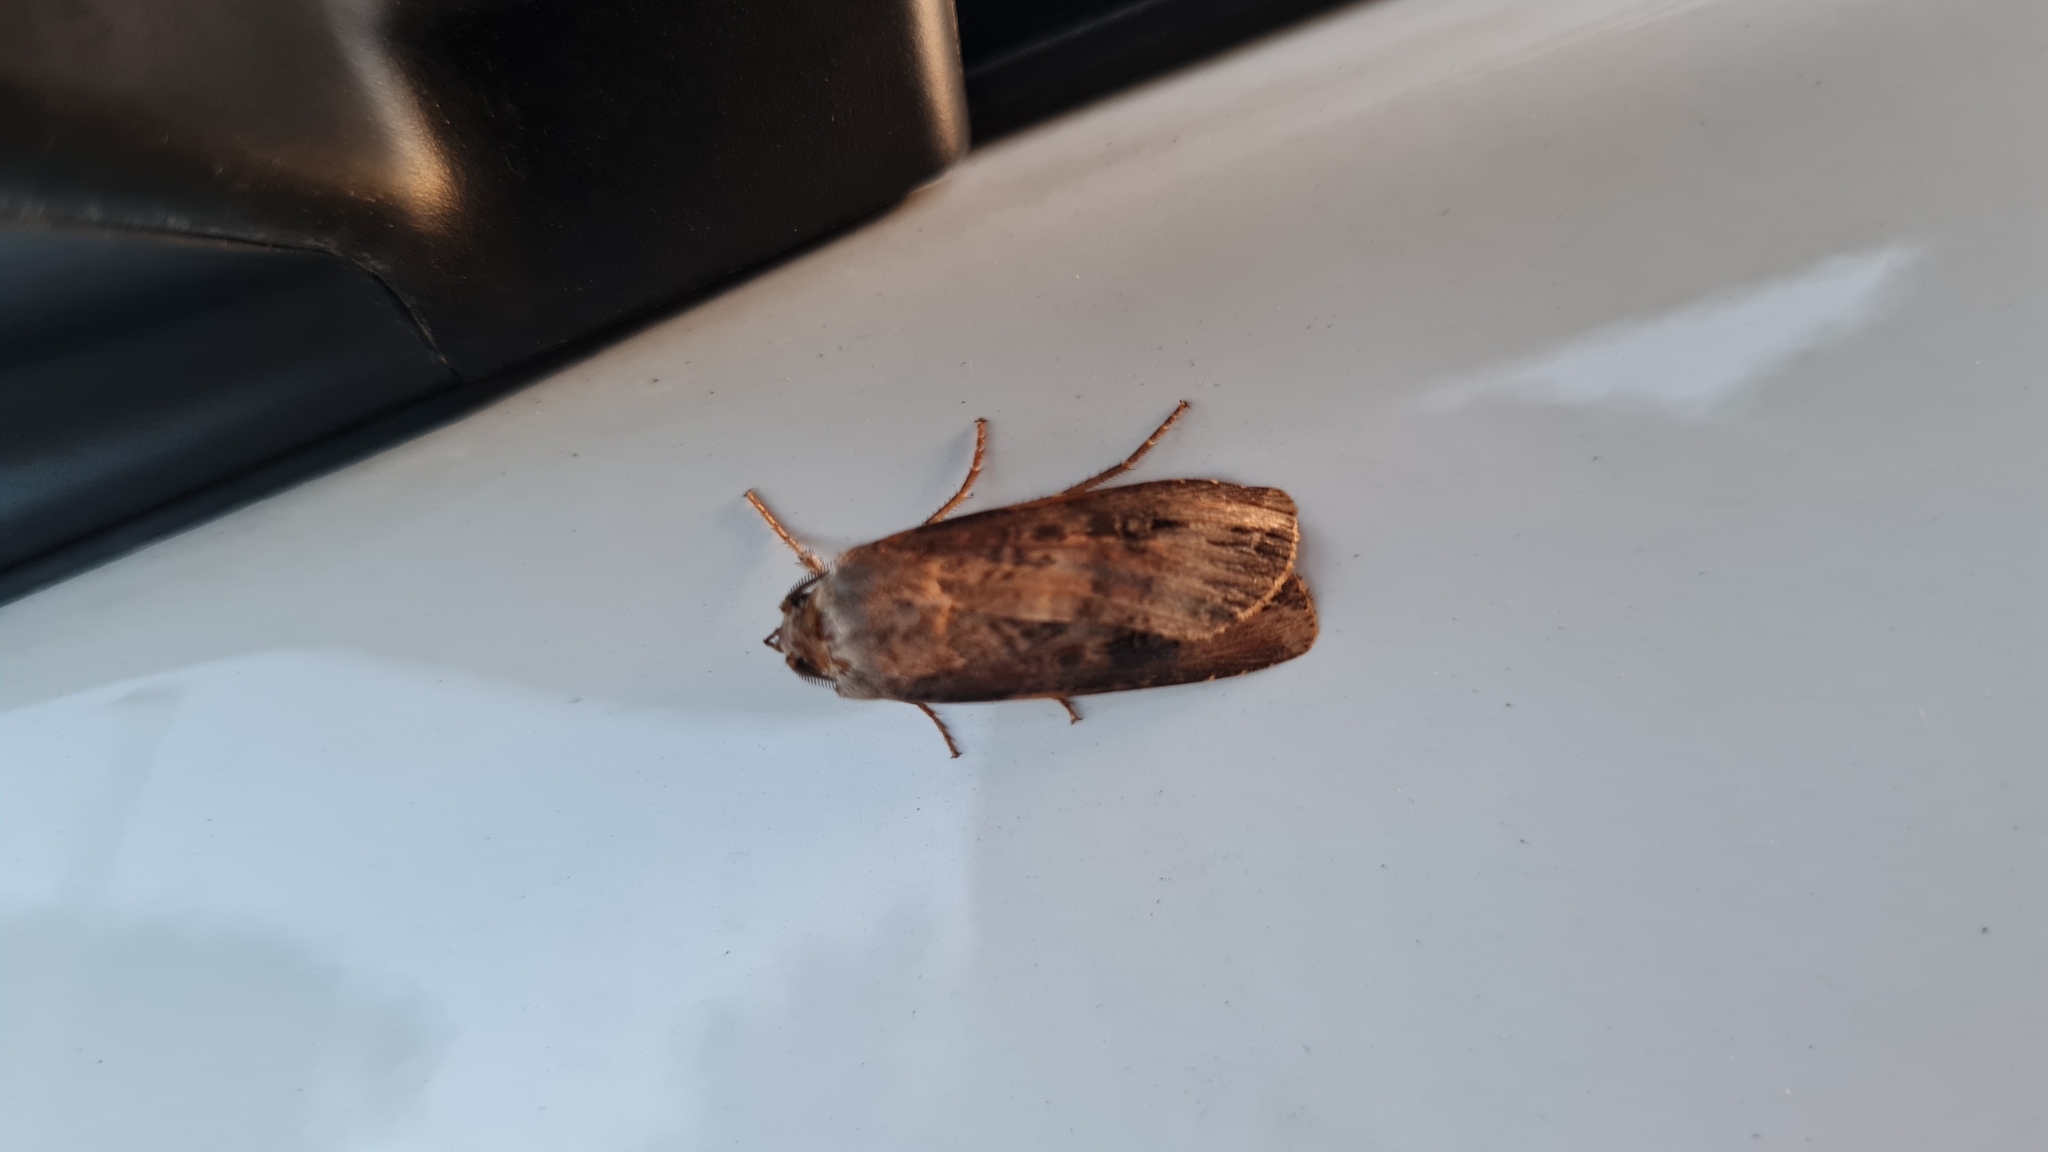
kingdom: Animalia
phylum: Arthropoda
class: Insecta
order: Lepidoptera
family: Noctuidae
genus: Agrotis
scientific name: Agrotis ipsilon
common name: Dark sword-grass
